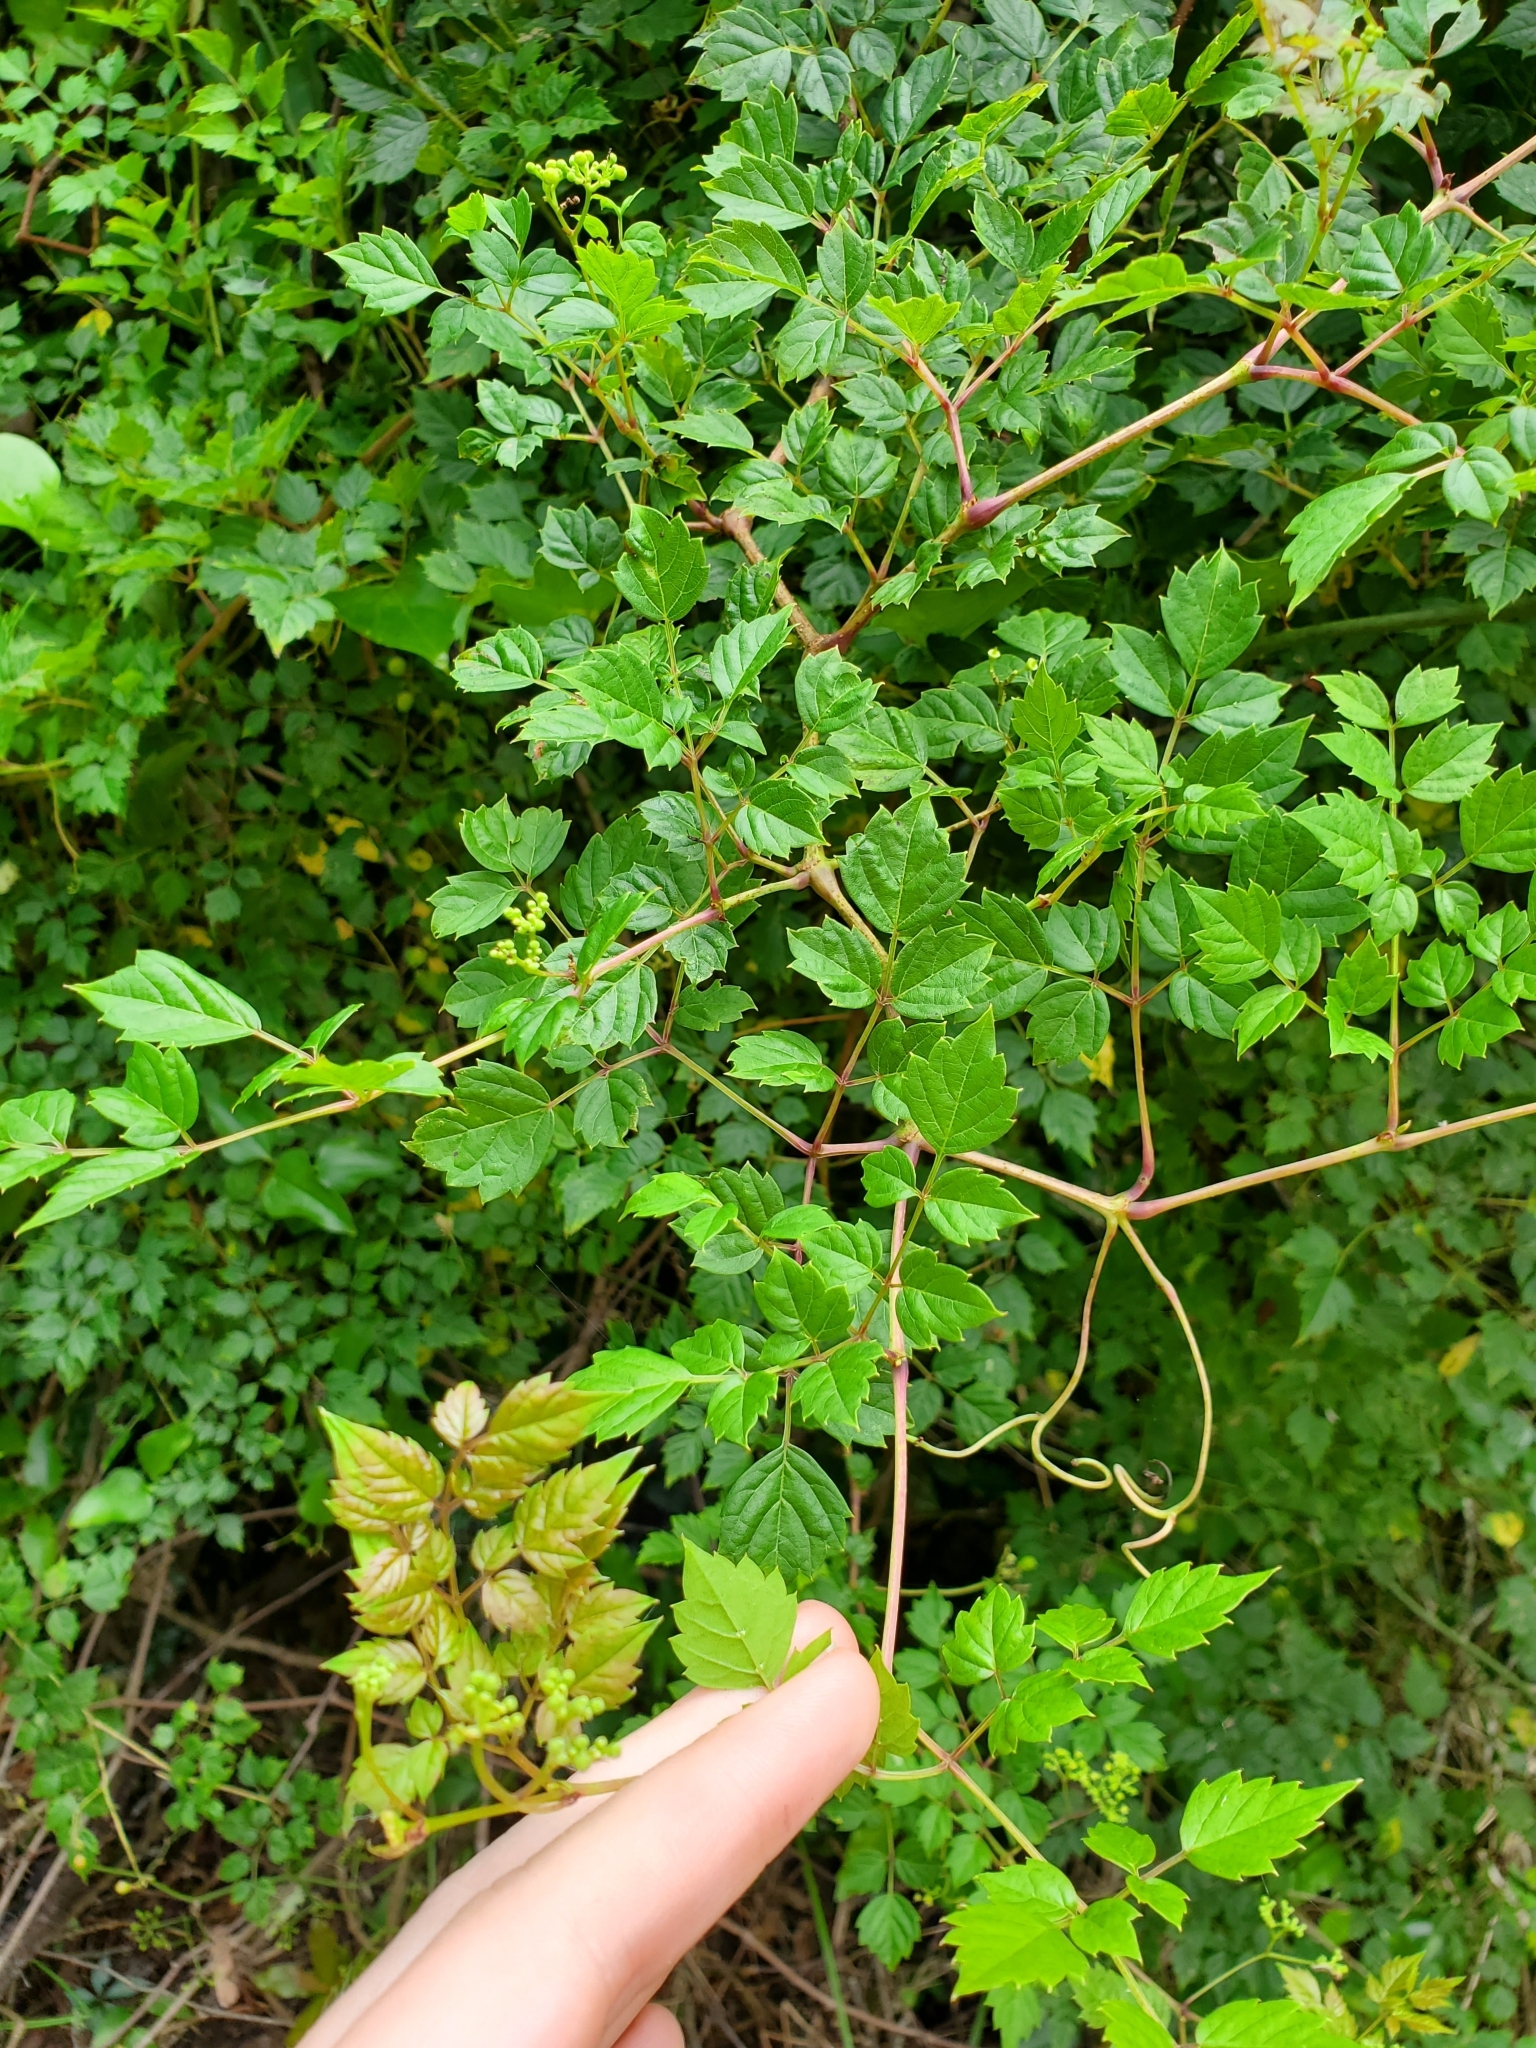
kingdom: Plantae
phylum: Tracheophyta
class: Magnoliopsida
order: Vitales
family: Vitaceae
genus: Nekemias
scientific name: Nekemias arborea
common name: Peppervine
